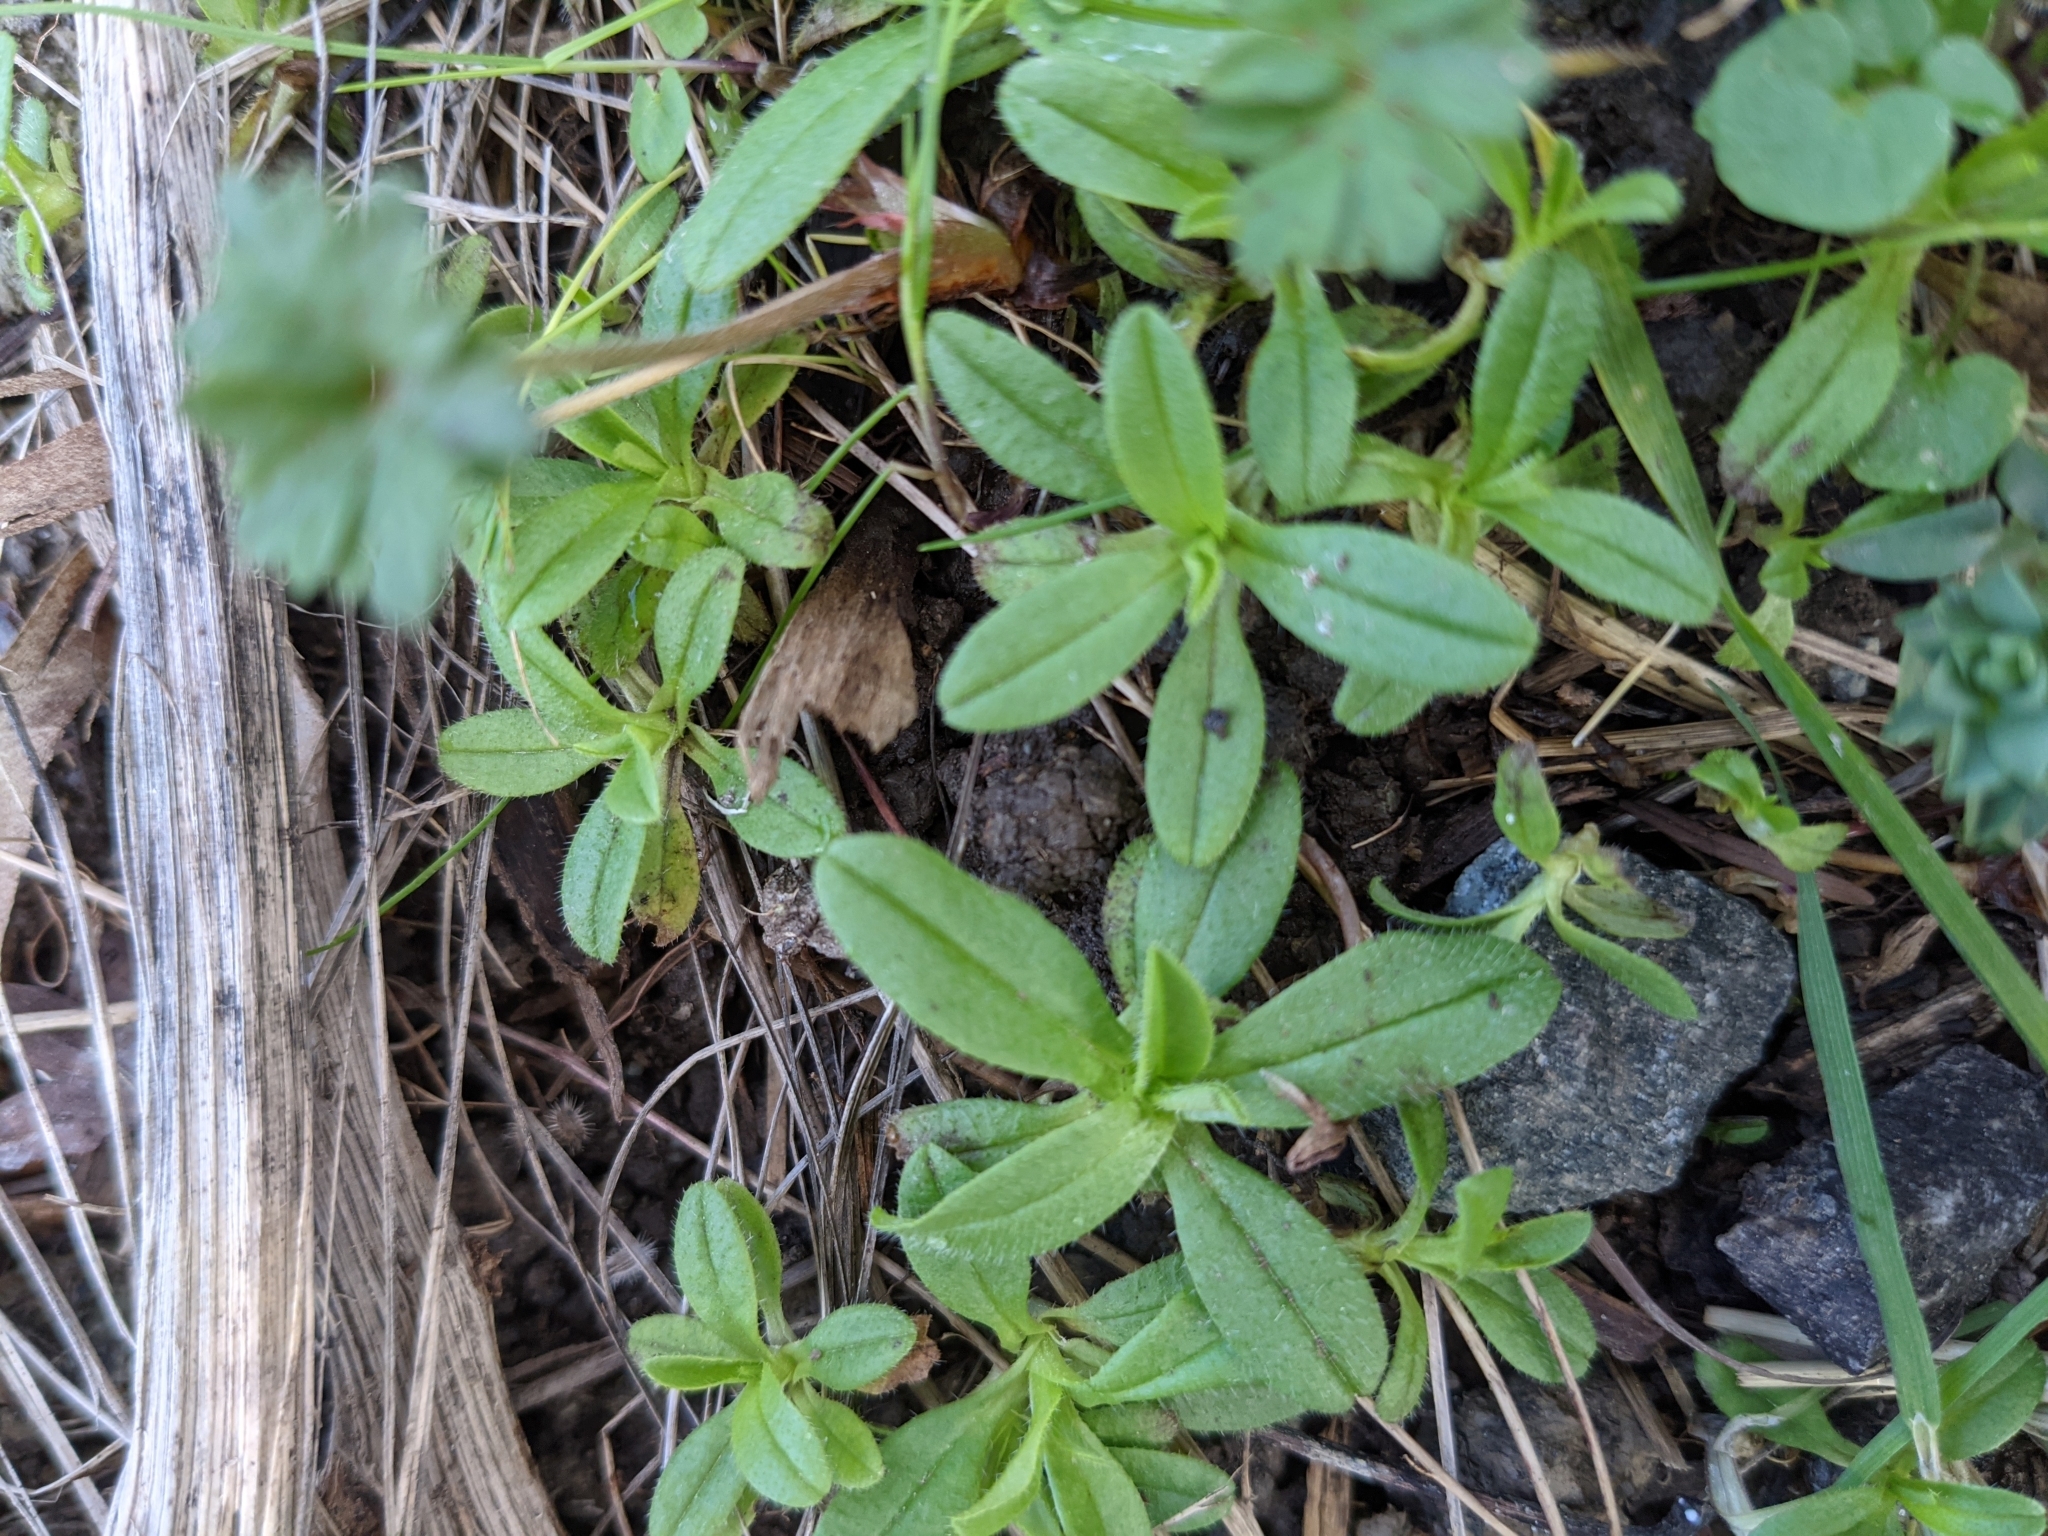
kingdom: Plantae
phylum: Tracheophyta
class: Magnoliopsida
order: Caryophyllales
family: Caryophyllaceae
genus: Cerastium
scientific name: Cerastium fontanum
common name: Common mouse-ear
